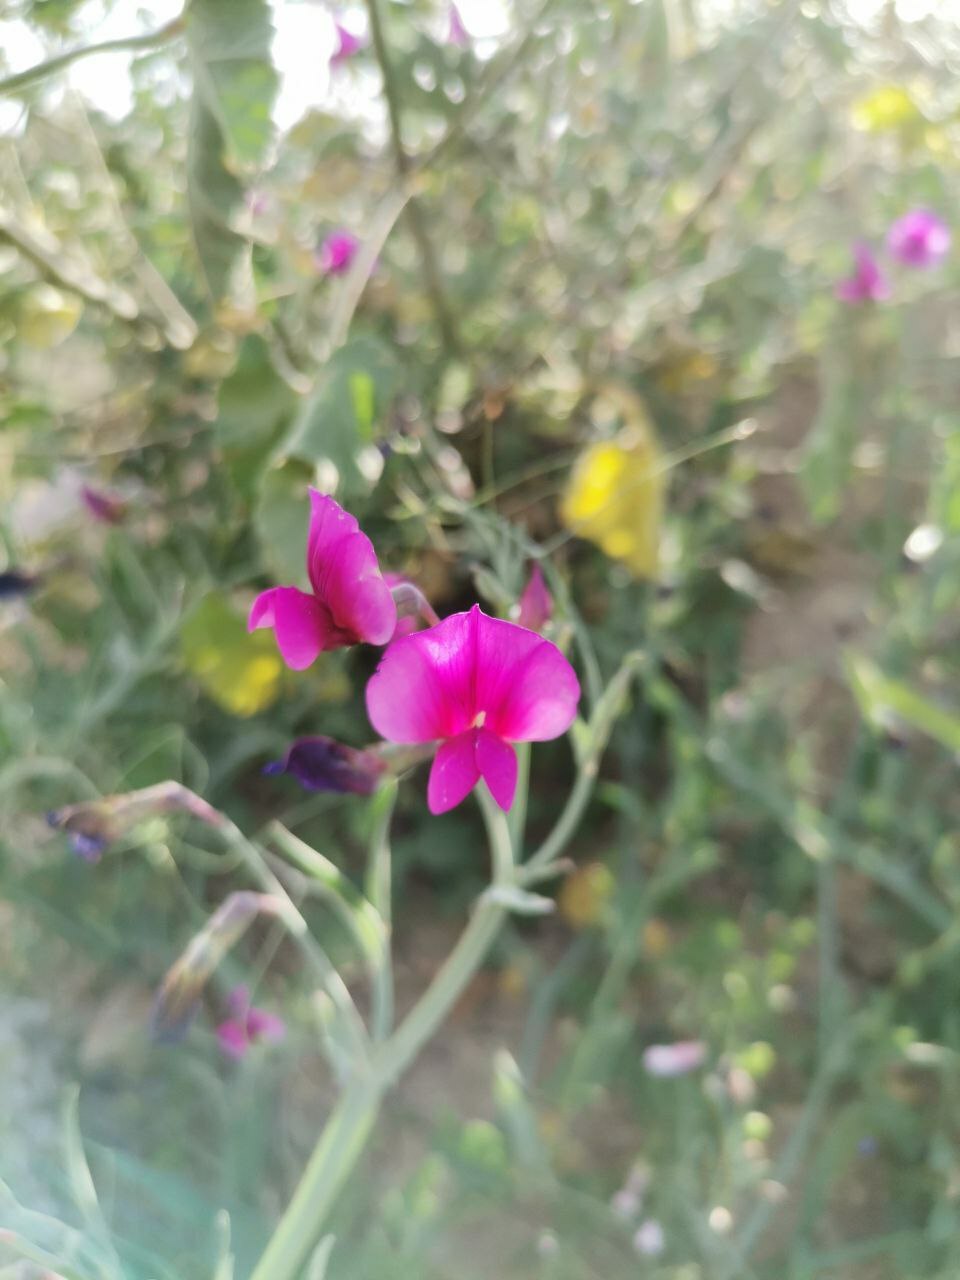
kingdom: Plantae
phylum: Tracheophyta
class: Magnoliopsida
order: Fabales
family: Fabaceae
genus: Lathyrus
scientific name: Lathyrus tingitanus
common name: Tangier pea
